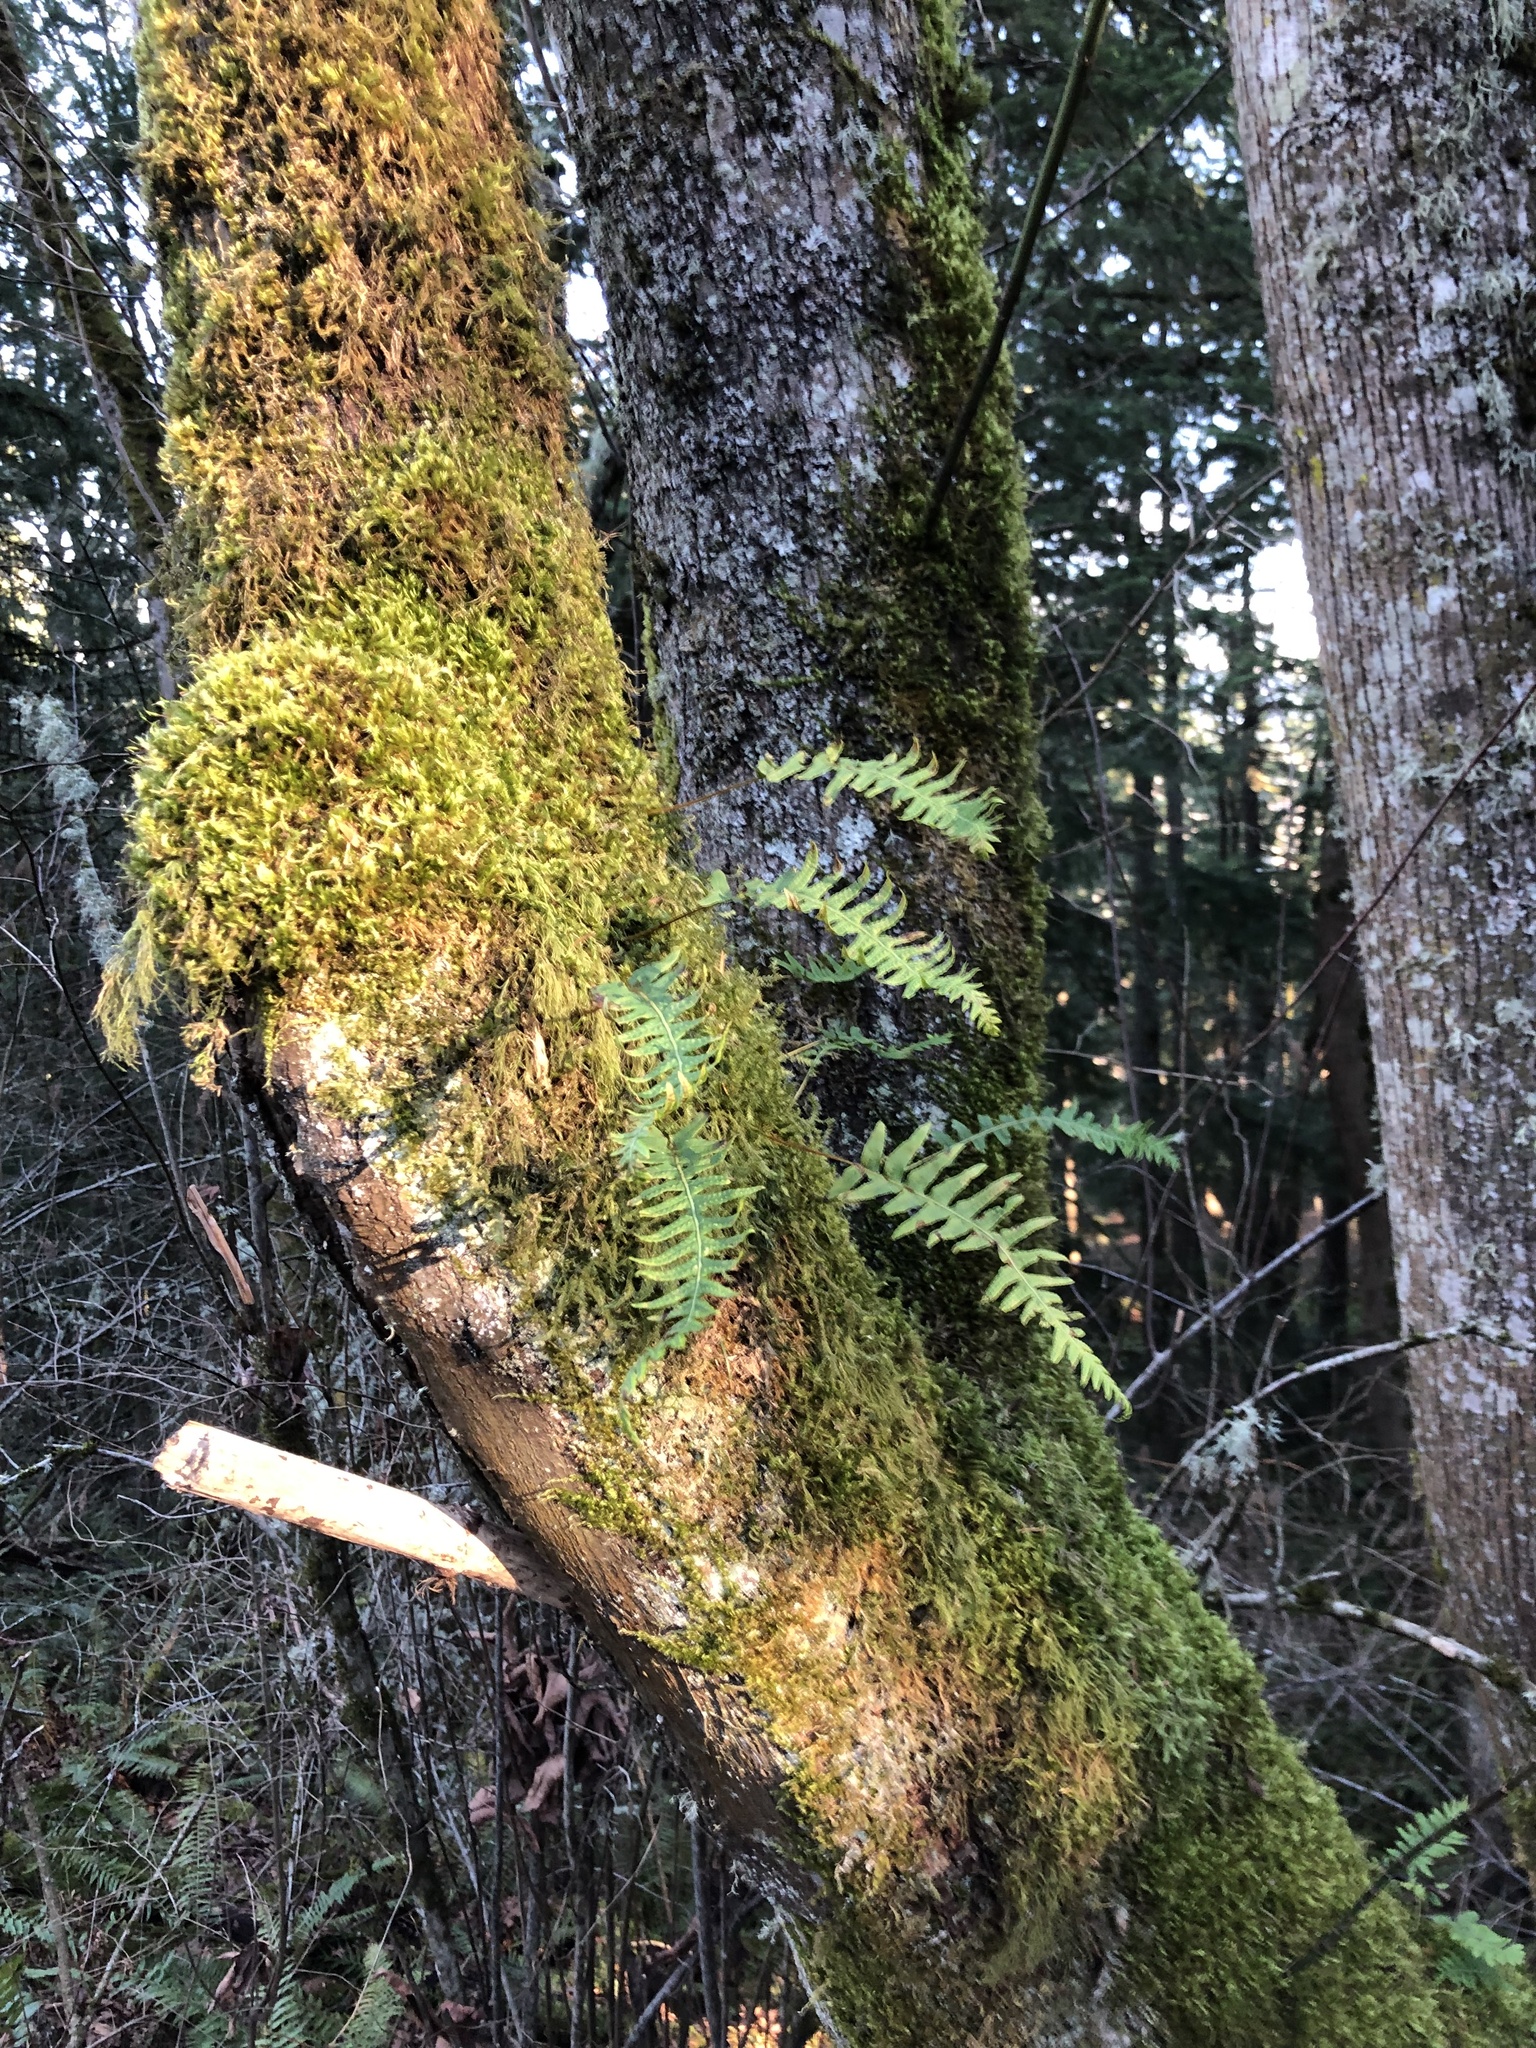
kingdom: Plantae
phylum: Tracheophyta
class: Polypodiopsida
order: Polypodiales
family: Polypodiaceae
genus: Polypodium
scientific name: Polypodium glycyrrhiza
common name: Licorice fern
